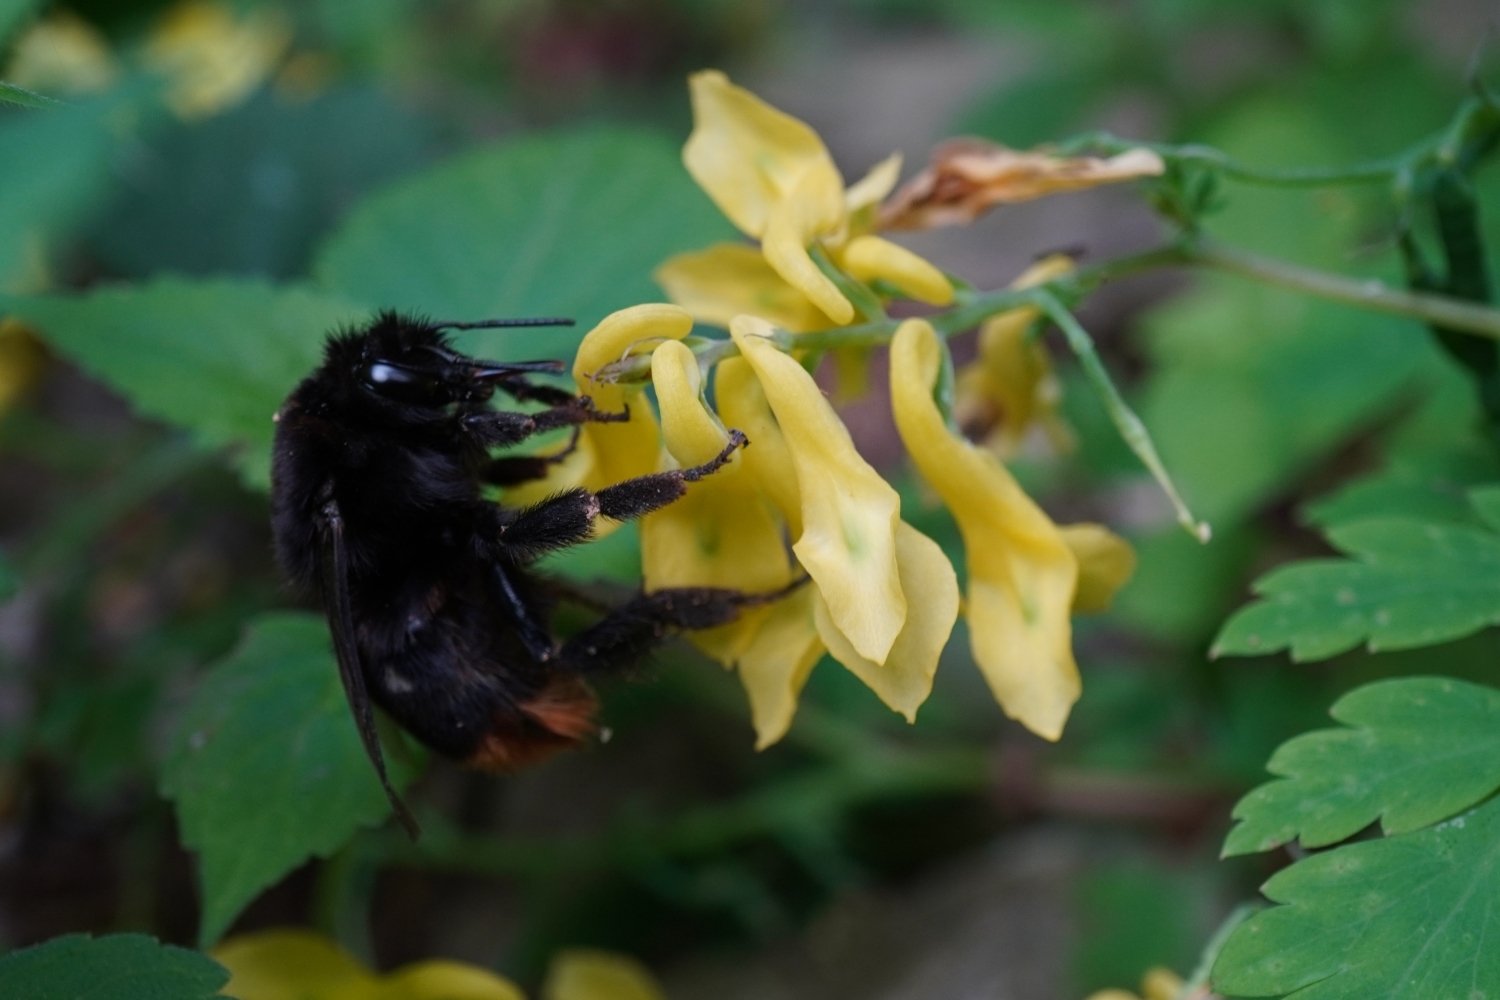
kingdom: Animalia
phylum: Arthropoda
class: Insecta
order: Hymenoptera
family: Apidae
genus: Bombus
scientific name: Bombus ignitus
